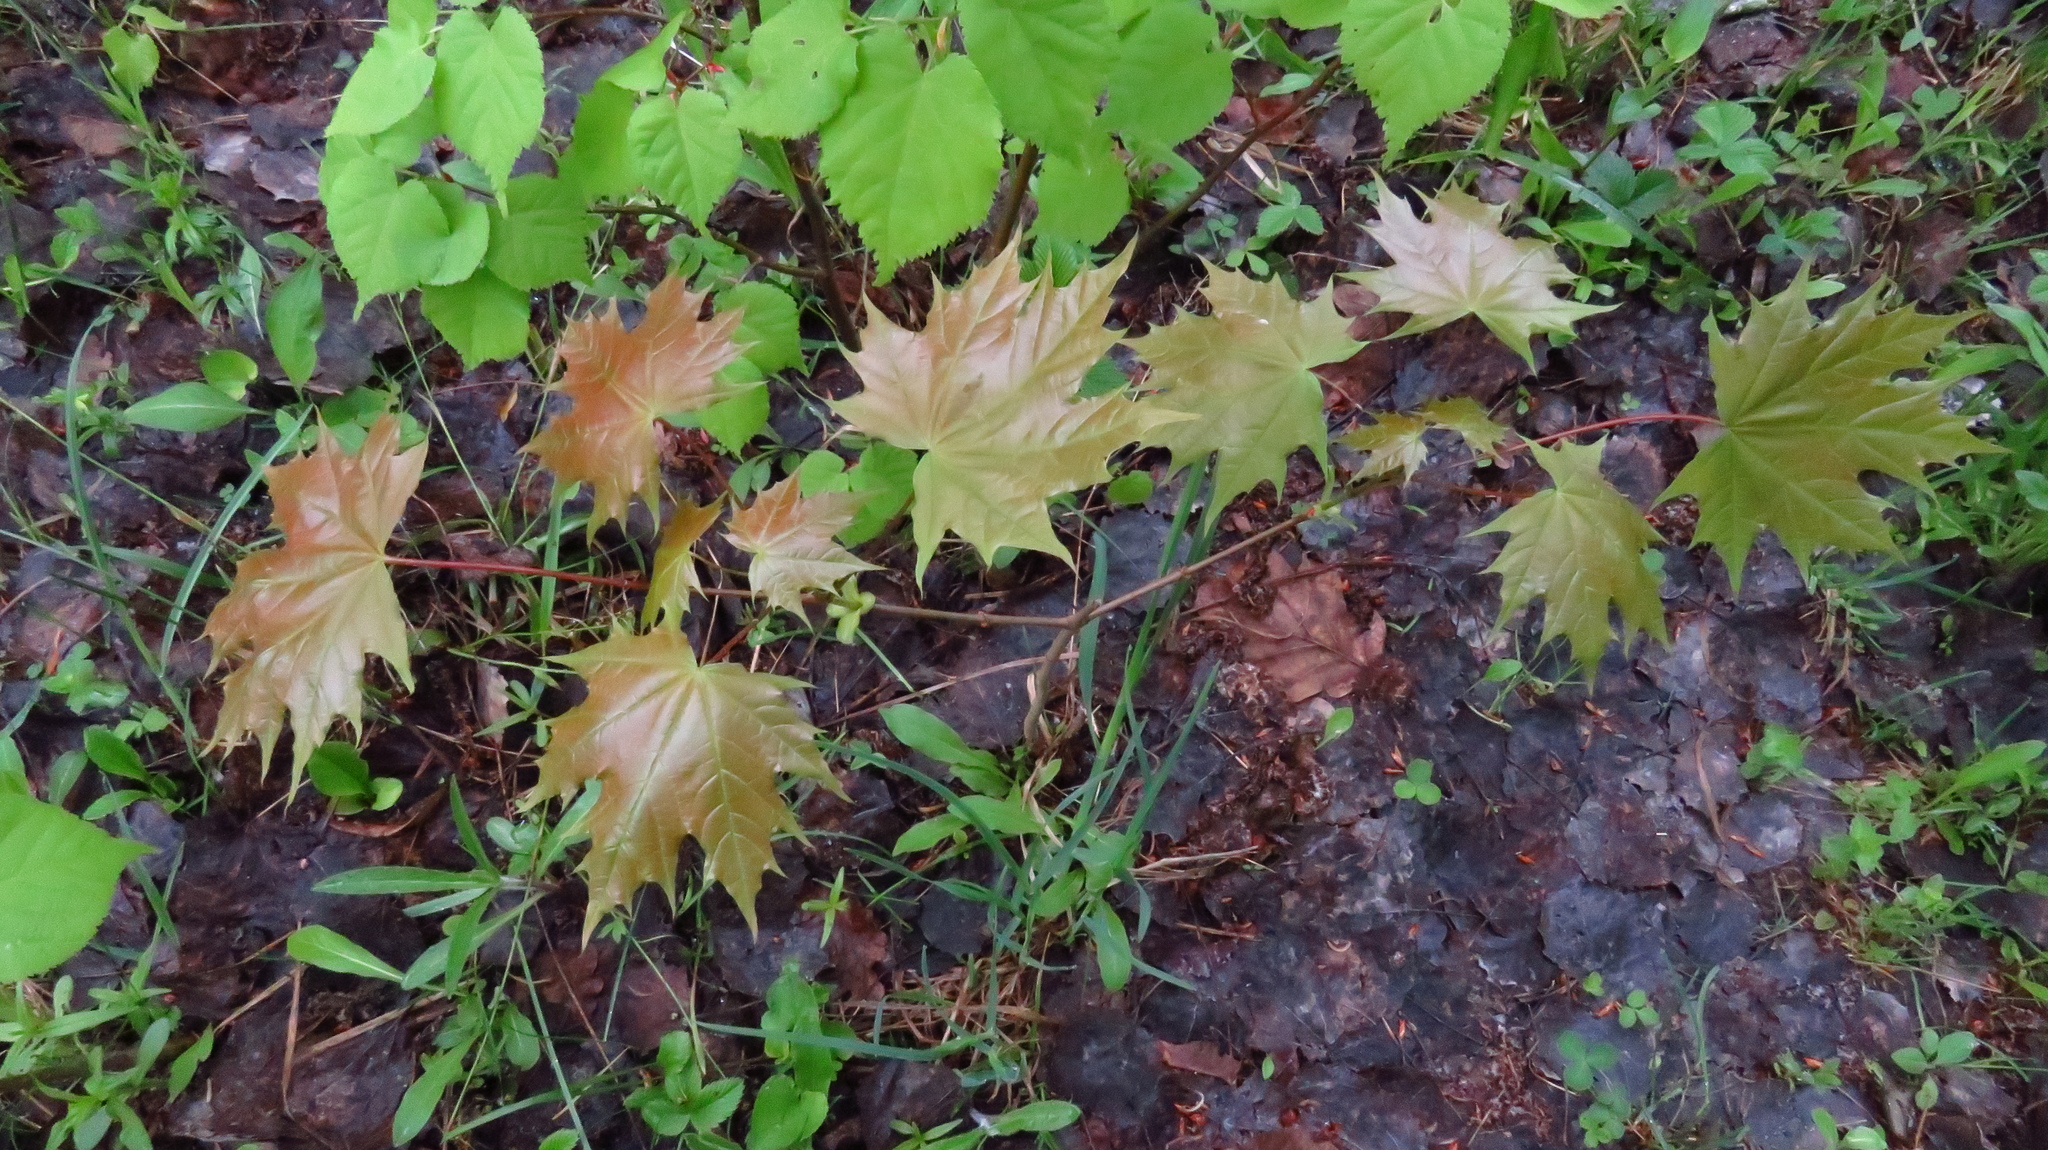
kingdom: Plantae
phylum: Tracheophyta
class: Magnoliopsida
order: Sapindales
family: Sapindaceae
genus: Acer
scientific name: Acer platanoides
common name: Norway maple
